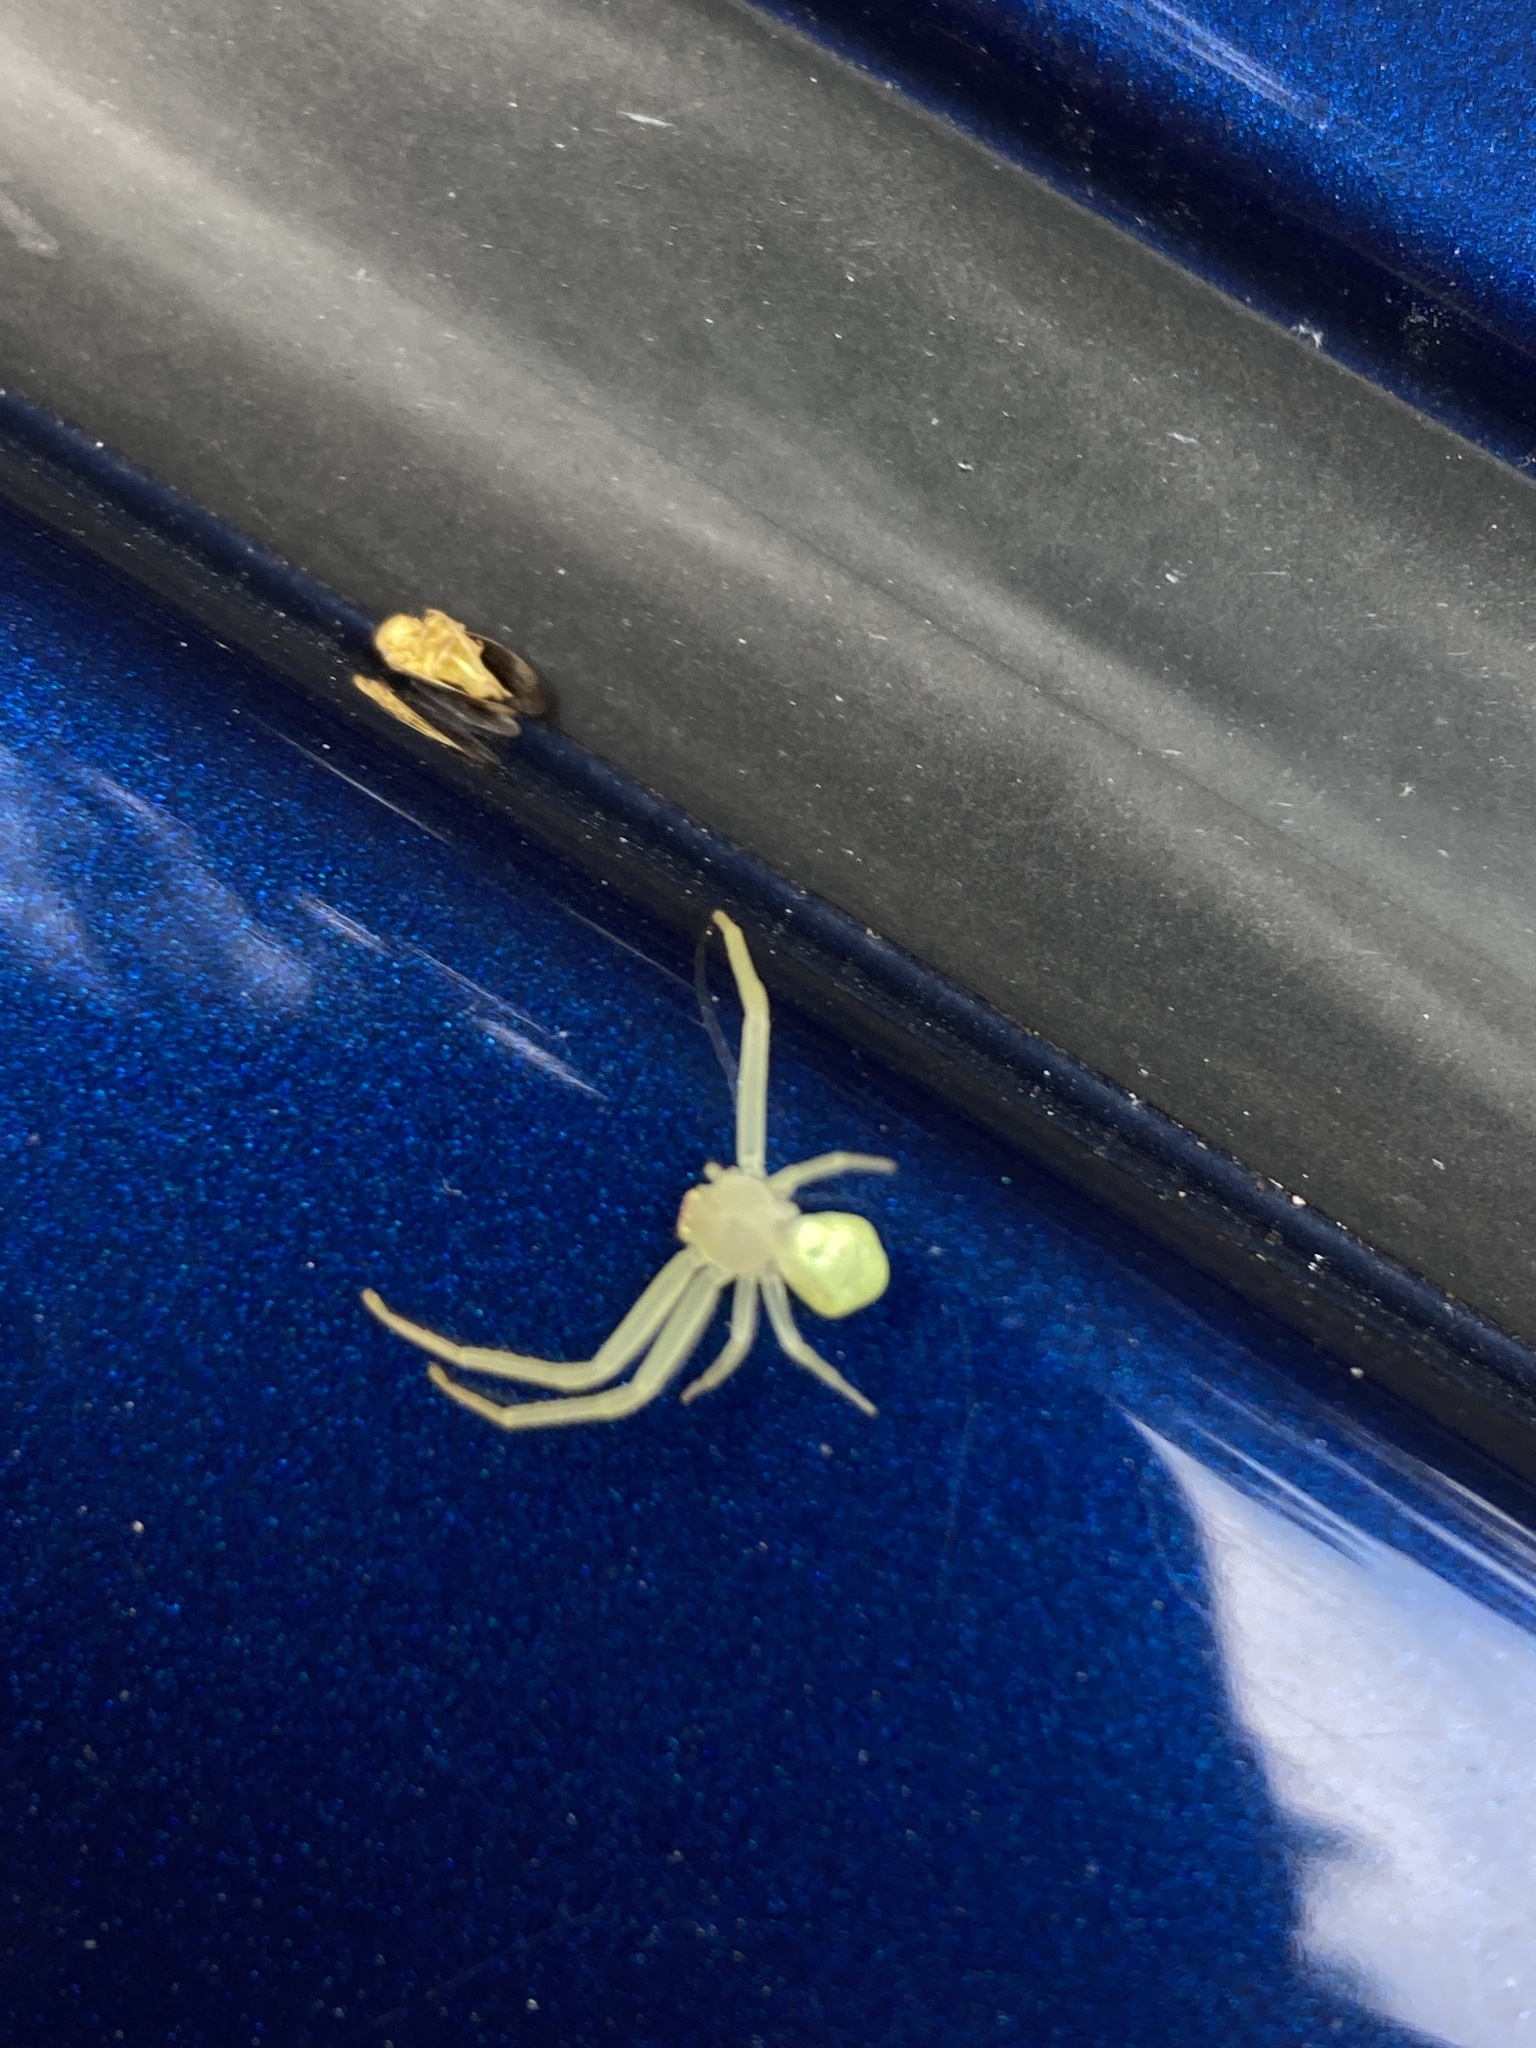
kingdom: Animalia
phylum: Arthropoda
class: Arachnida
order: Araneae
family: Thomisidae
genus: Misumessus
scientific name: Misumessus oblongus
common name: American green crab spider
